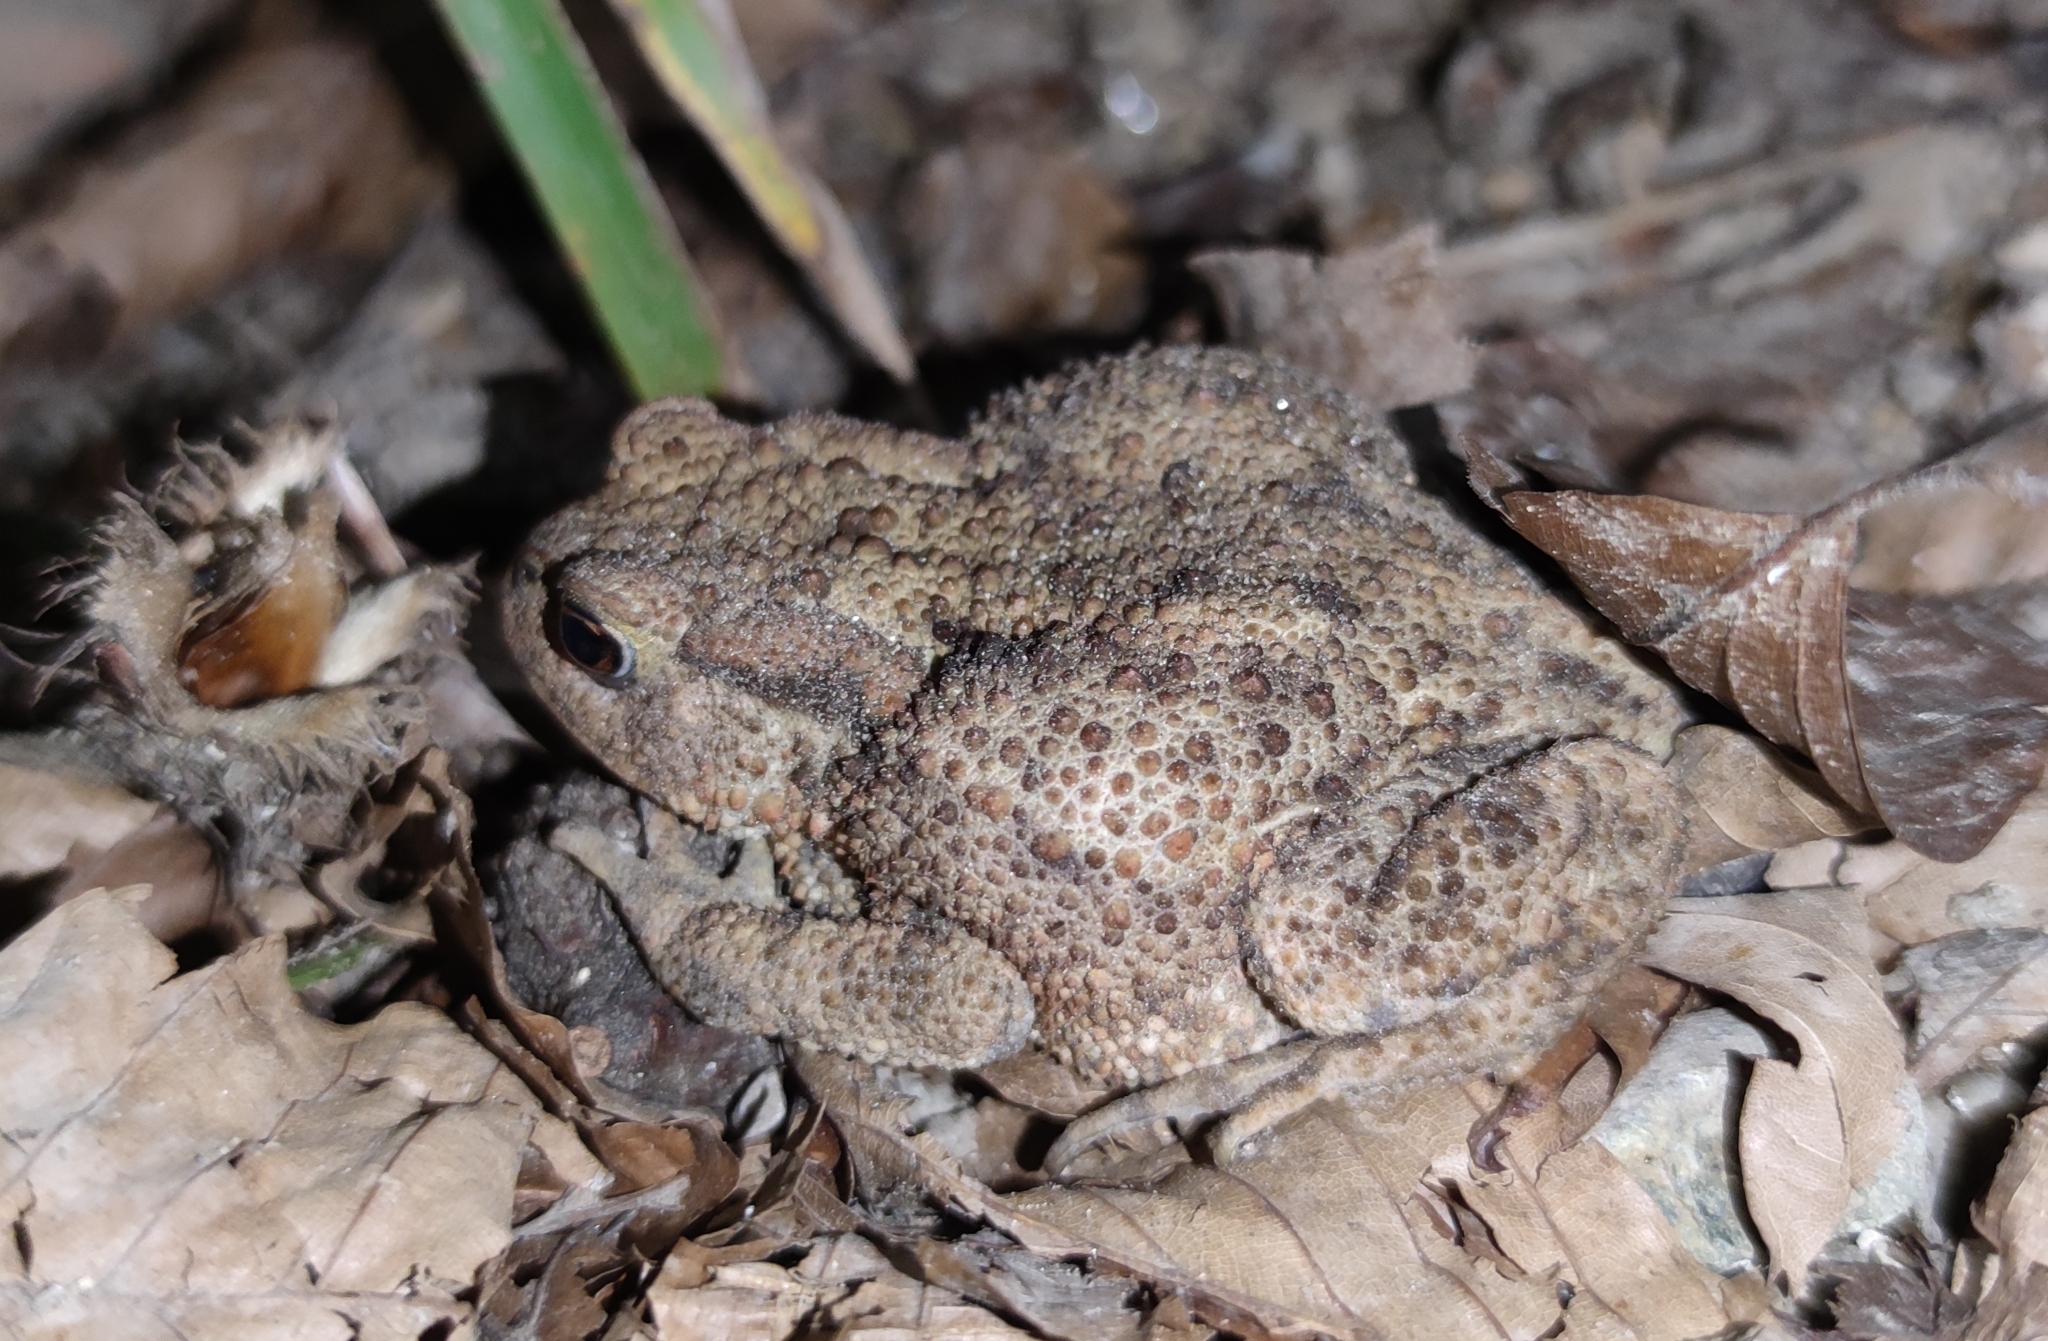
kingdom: Animalia
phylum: Chordata
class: Amphibia
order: Anura
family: Bufonidae
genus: Bufo
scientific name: Bufo bufo
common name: Common toad
